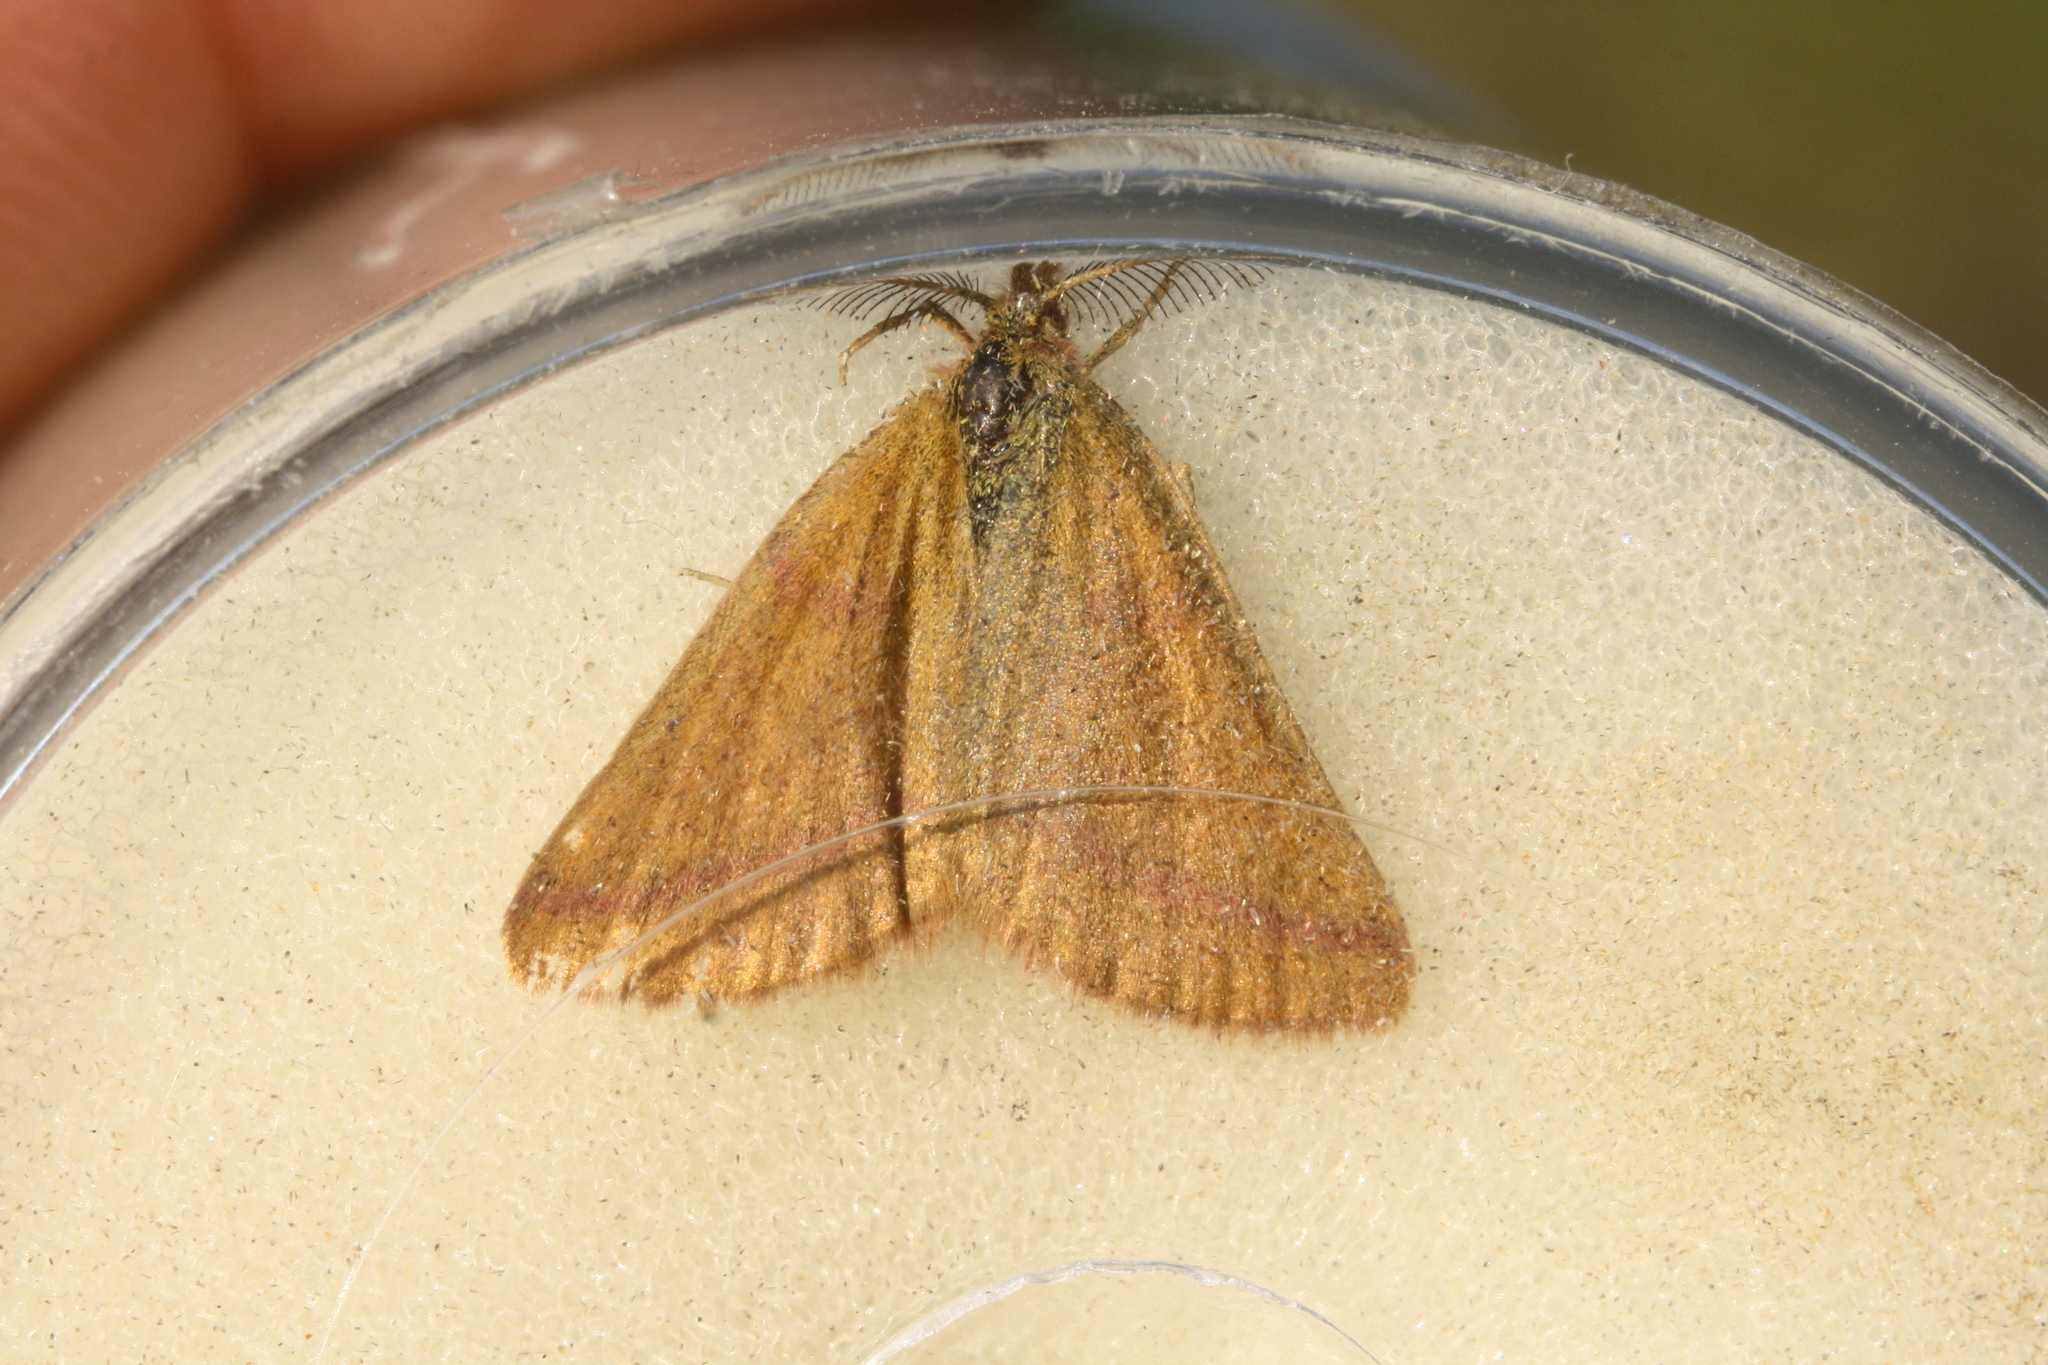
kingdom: Animalia
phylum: Arthropoda
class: Insecta
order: Lepidoptera
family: Geometridae
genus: Lythria
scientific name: Lythria purpuraria
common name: Purple-barred yellow
